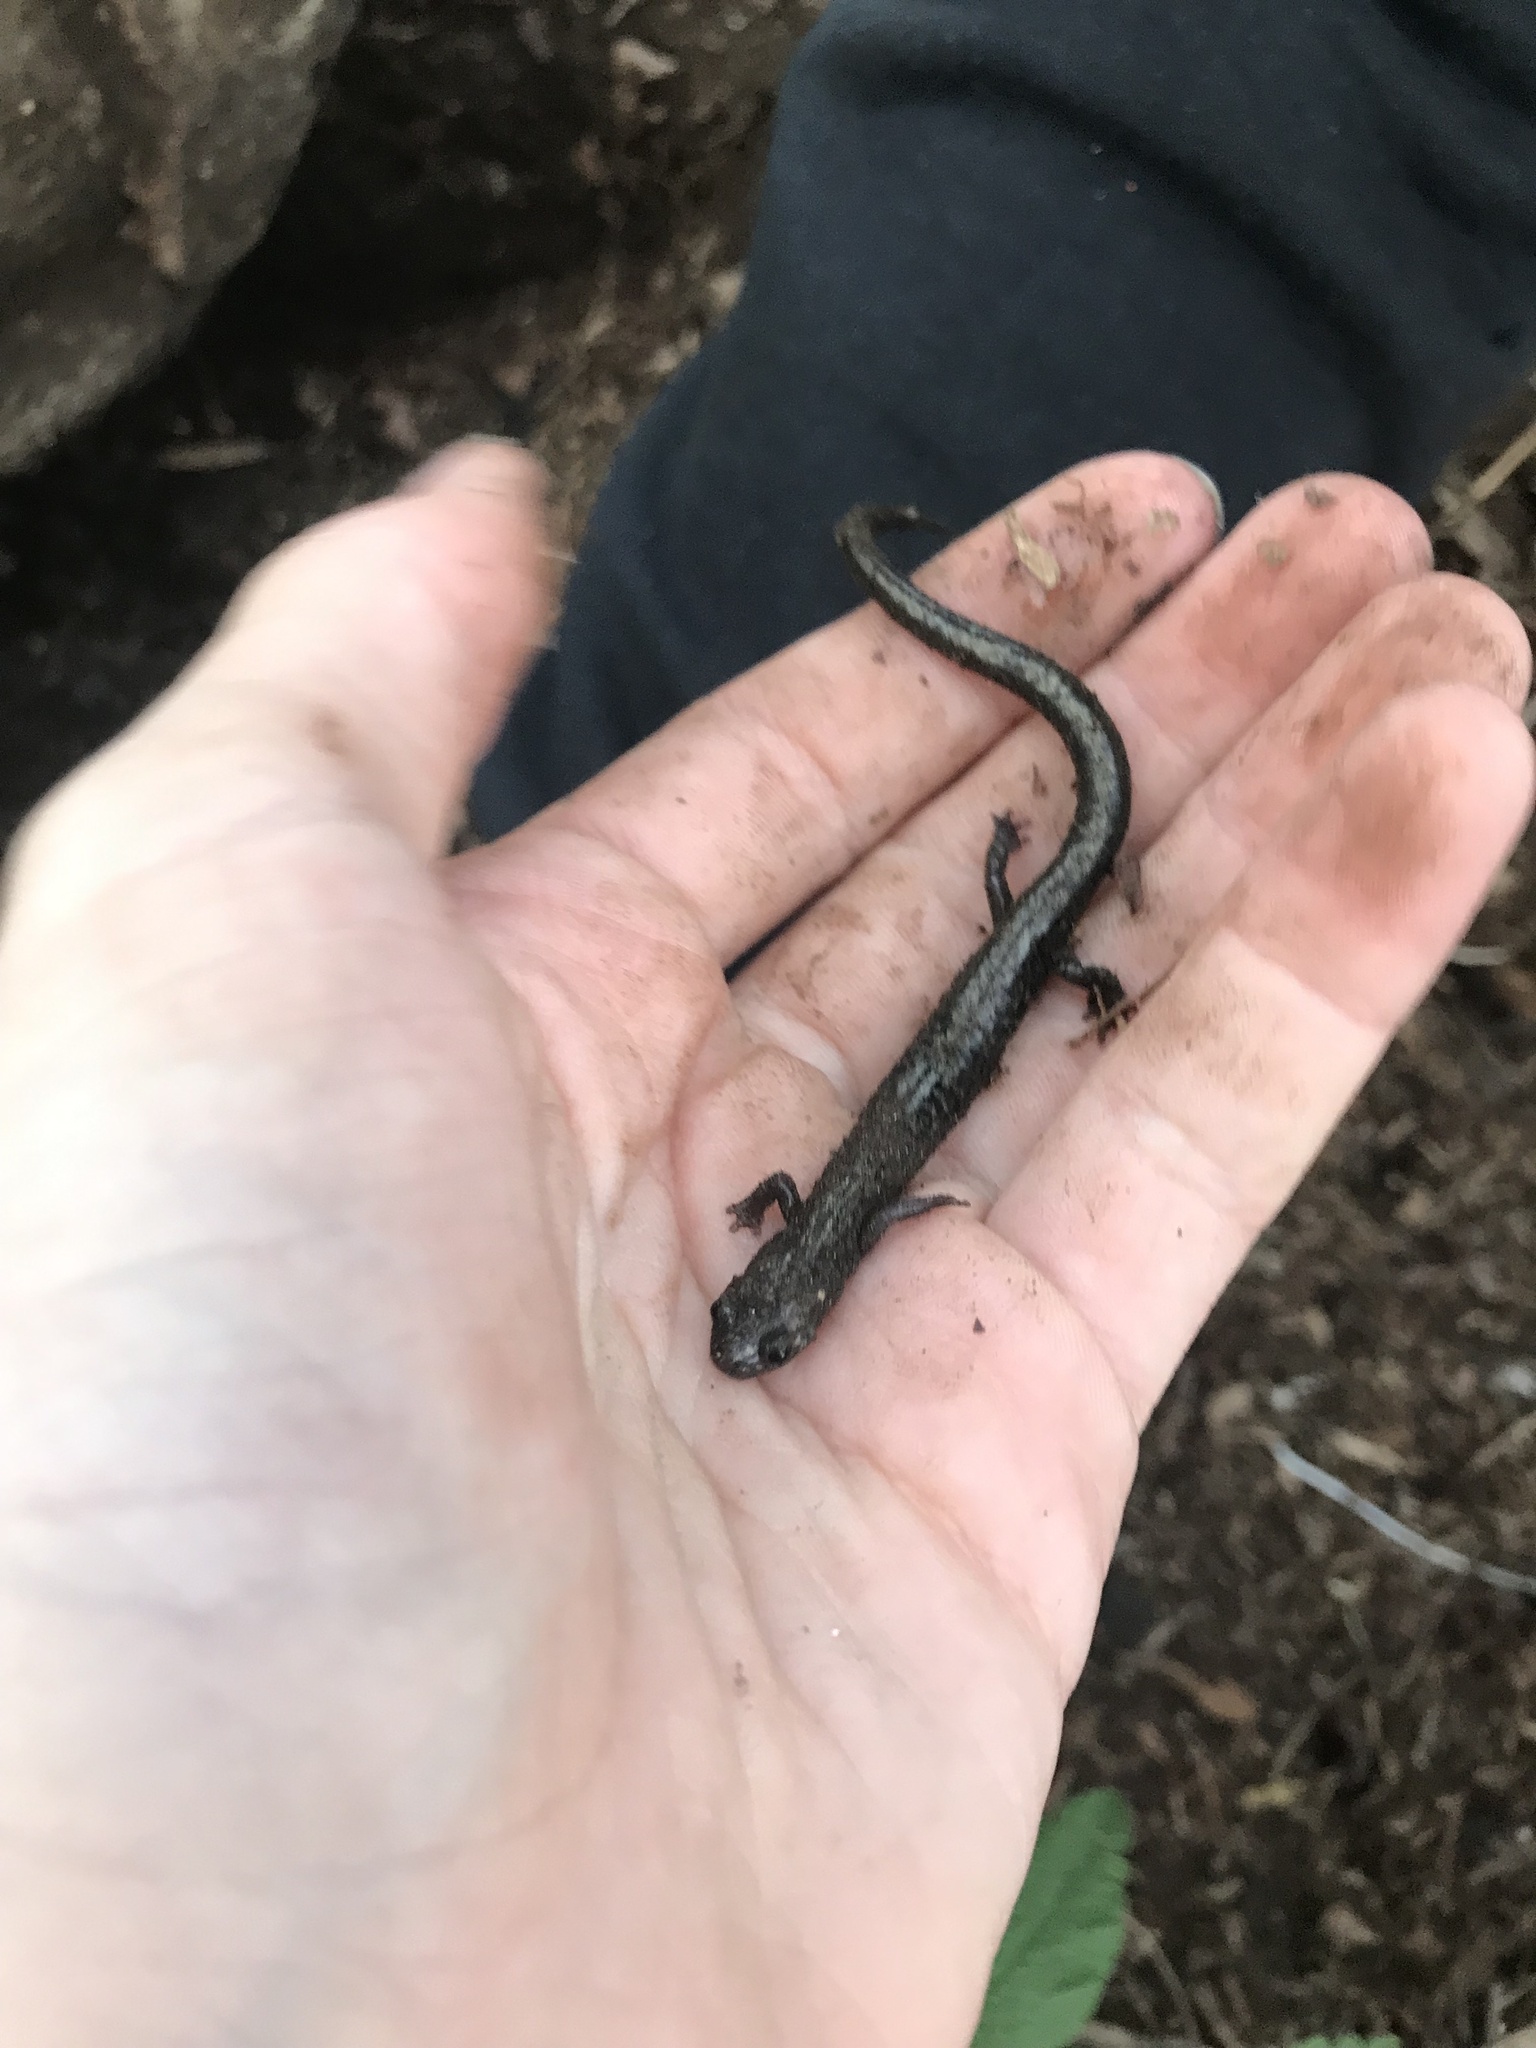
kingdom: Animalia
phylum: Chordata
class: Amphibia
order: Caudata
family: Plethodontidae
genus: Plethodon
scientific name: Plethodon hubrichti
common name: Peaks of otter salamander
